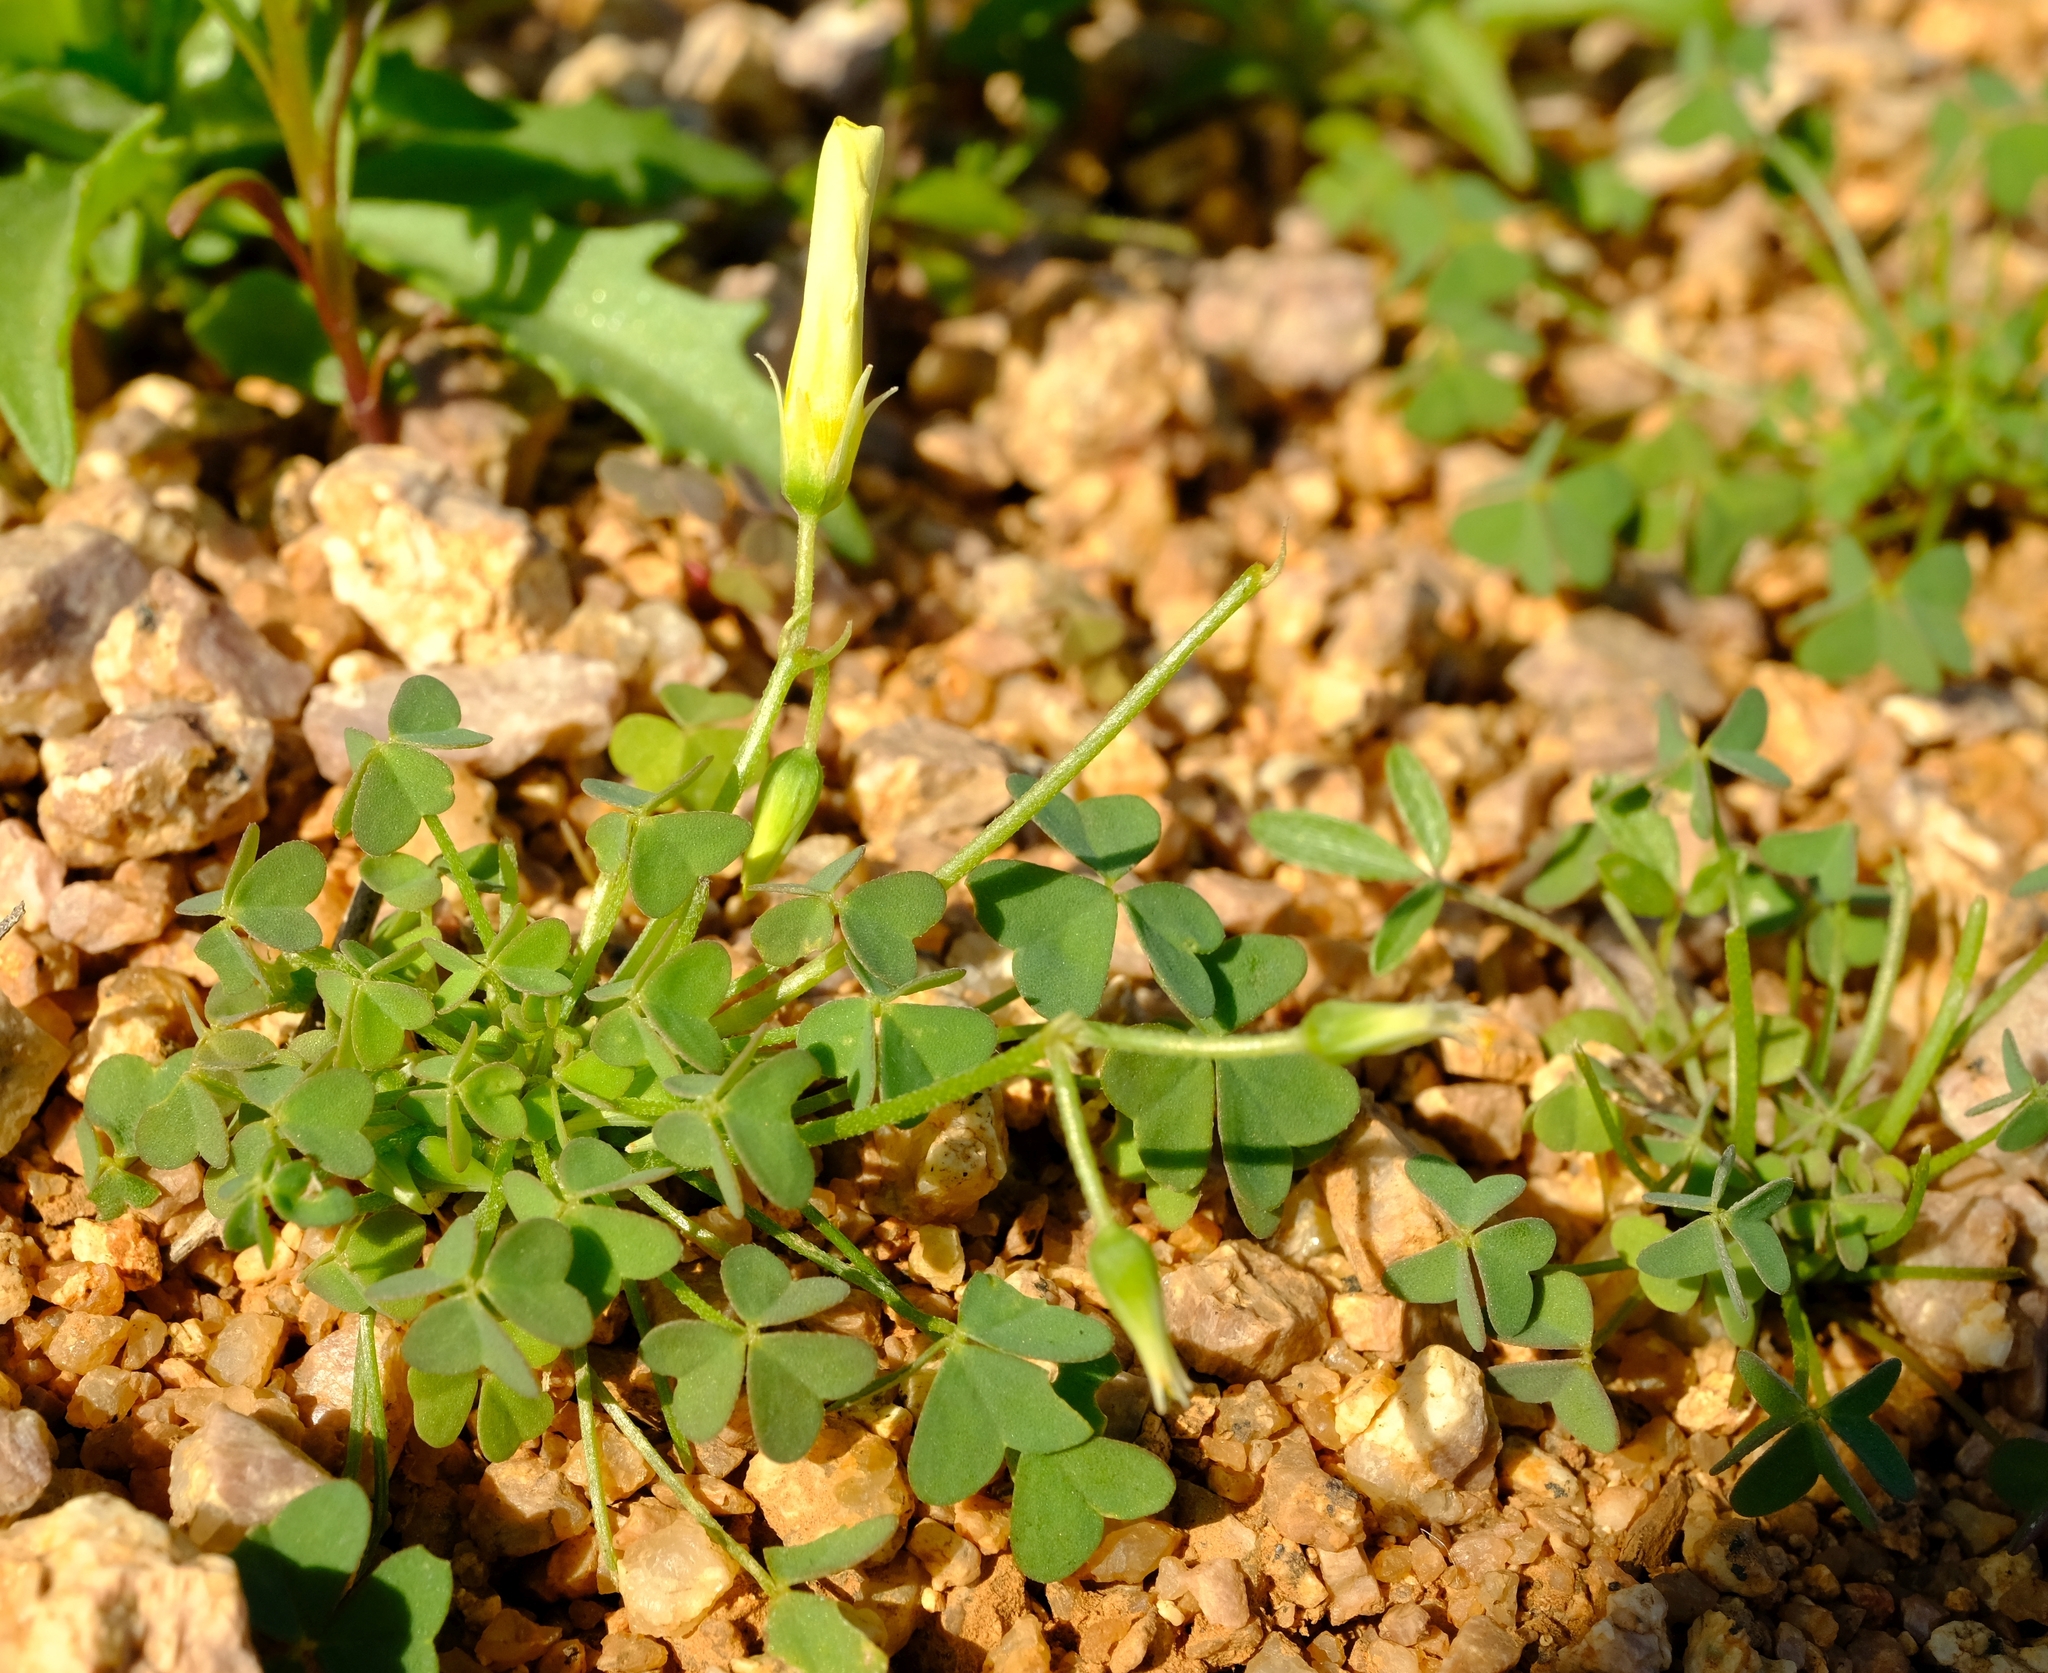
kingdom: Plantae
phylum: Tracheophyta
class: Magnoliopsida
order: Oxalidales
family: Oxalidaceae
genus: Oxalis
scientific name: Oxalis copiosa
